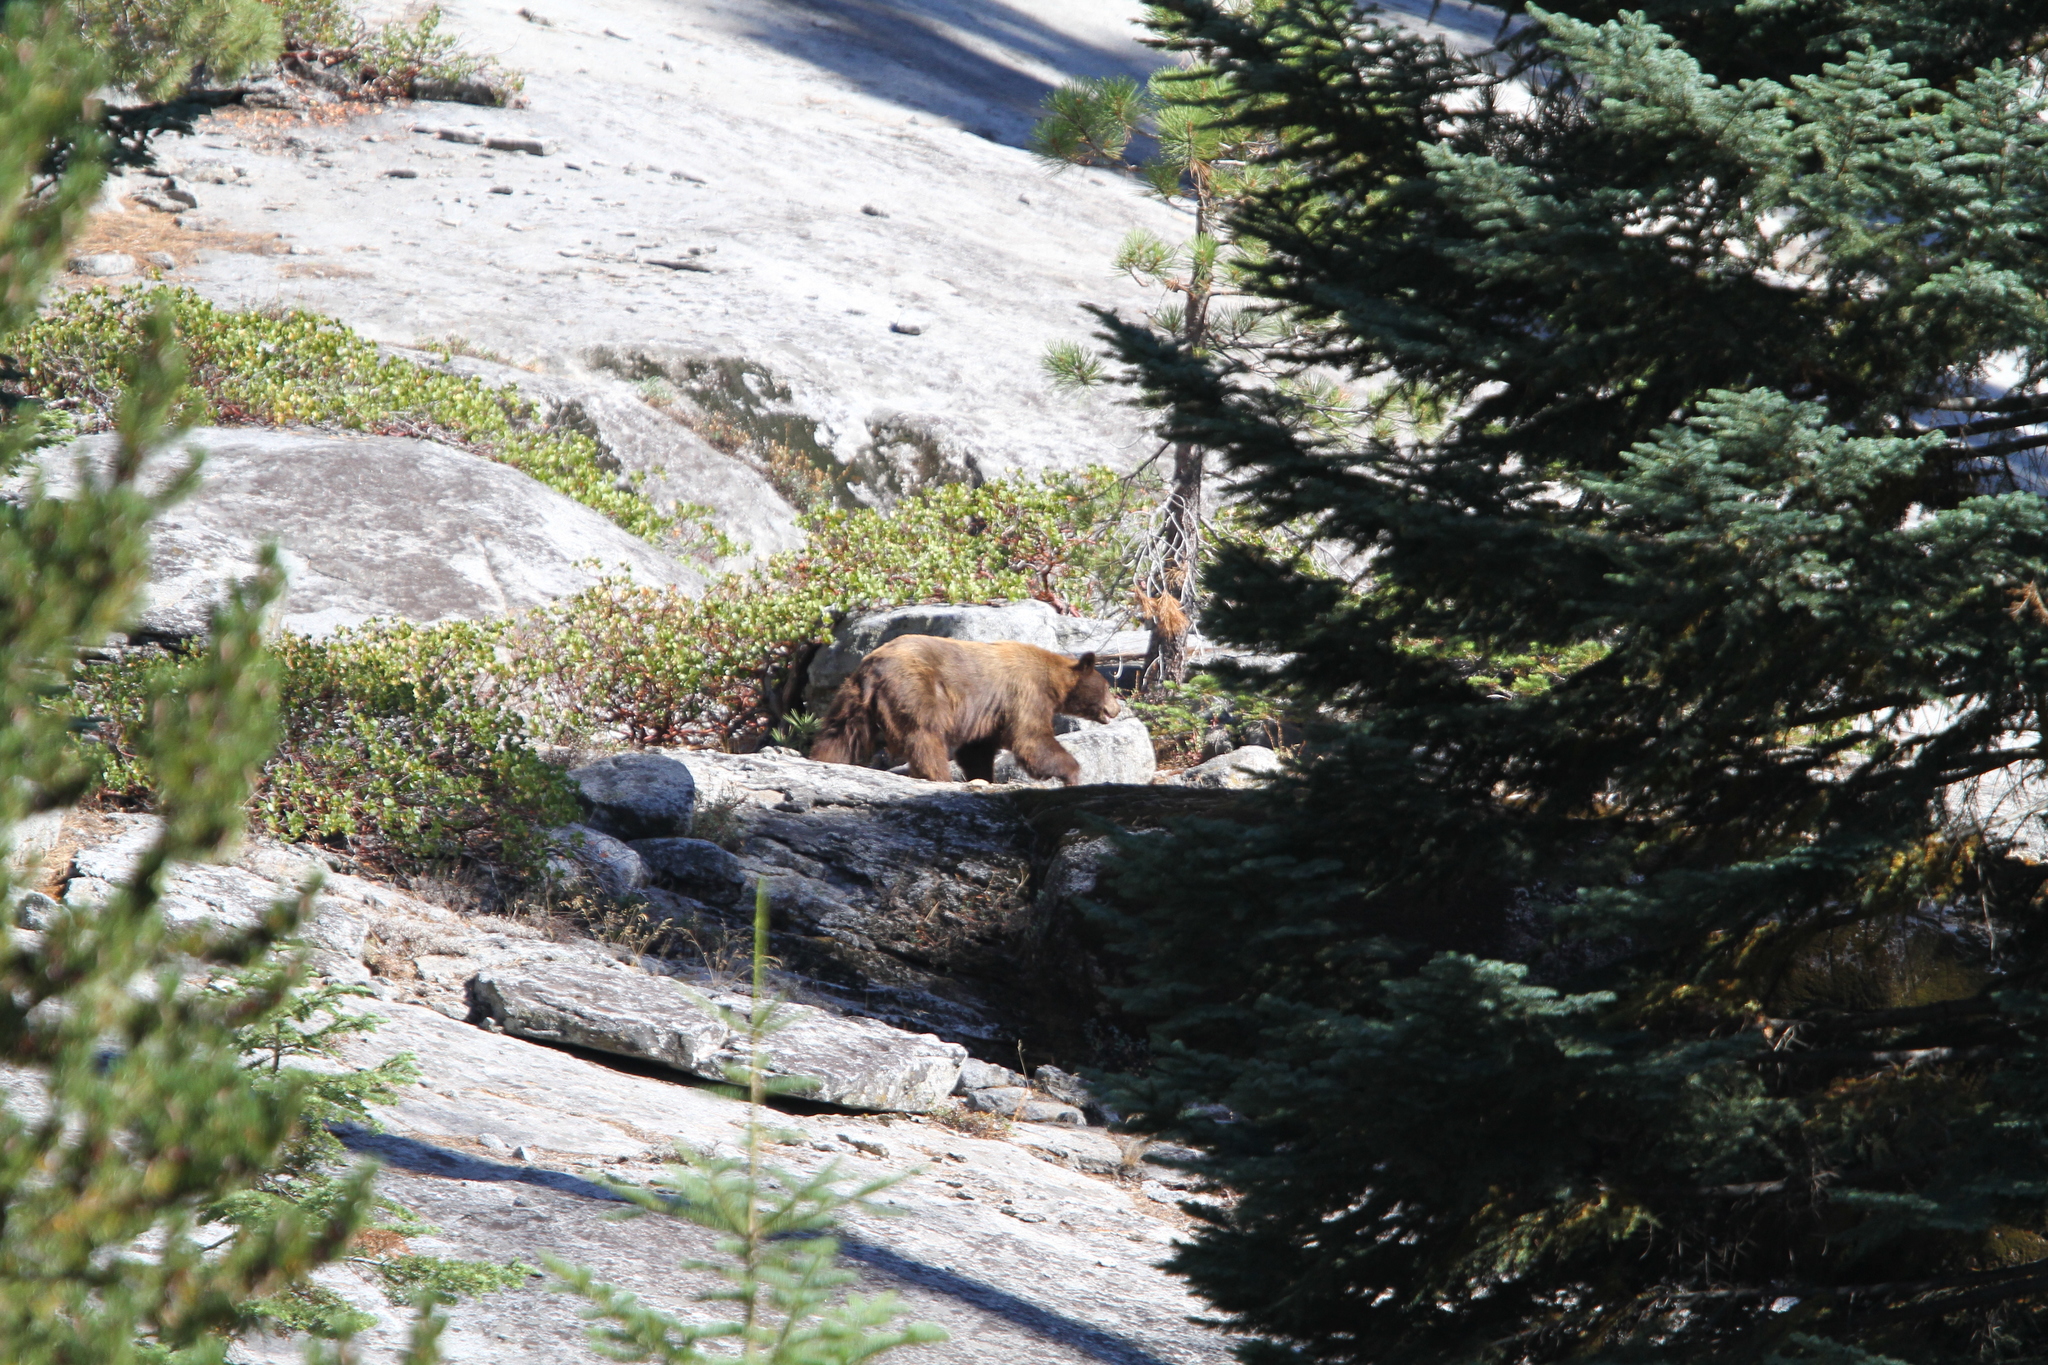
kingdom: Animalia
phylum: Chordata
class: Mammalia
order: Carnivora
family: Ursidae
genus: Ursus
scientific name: Ursus americanus
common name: American black bear
